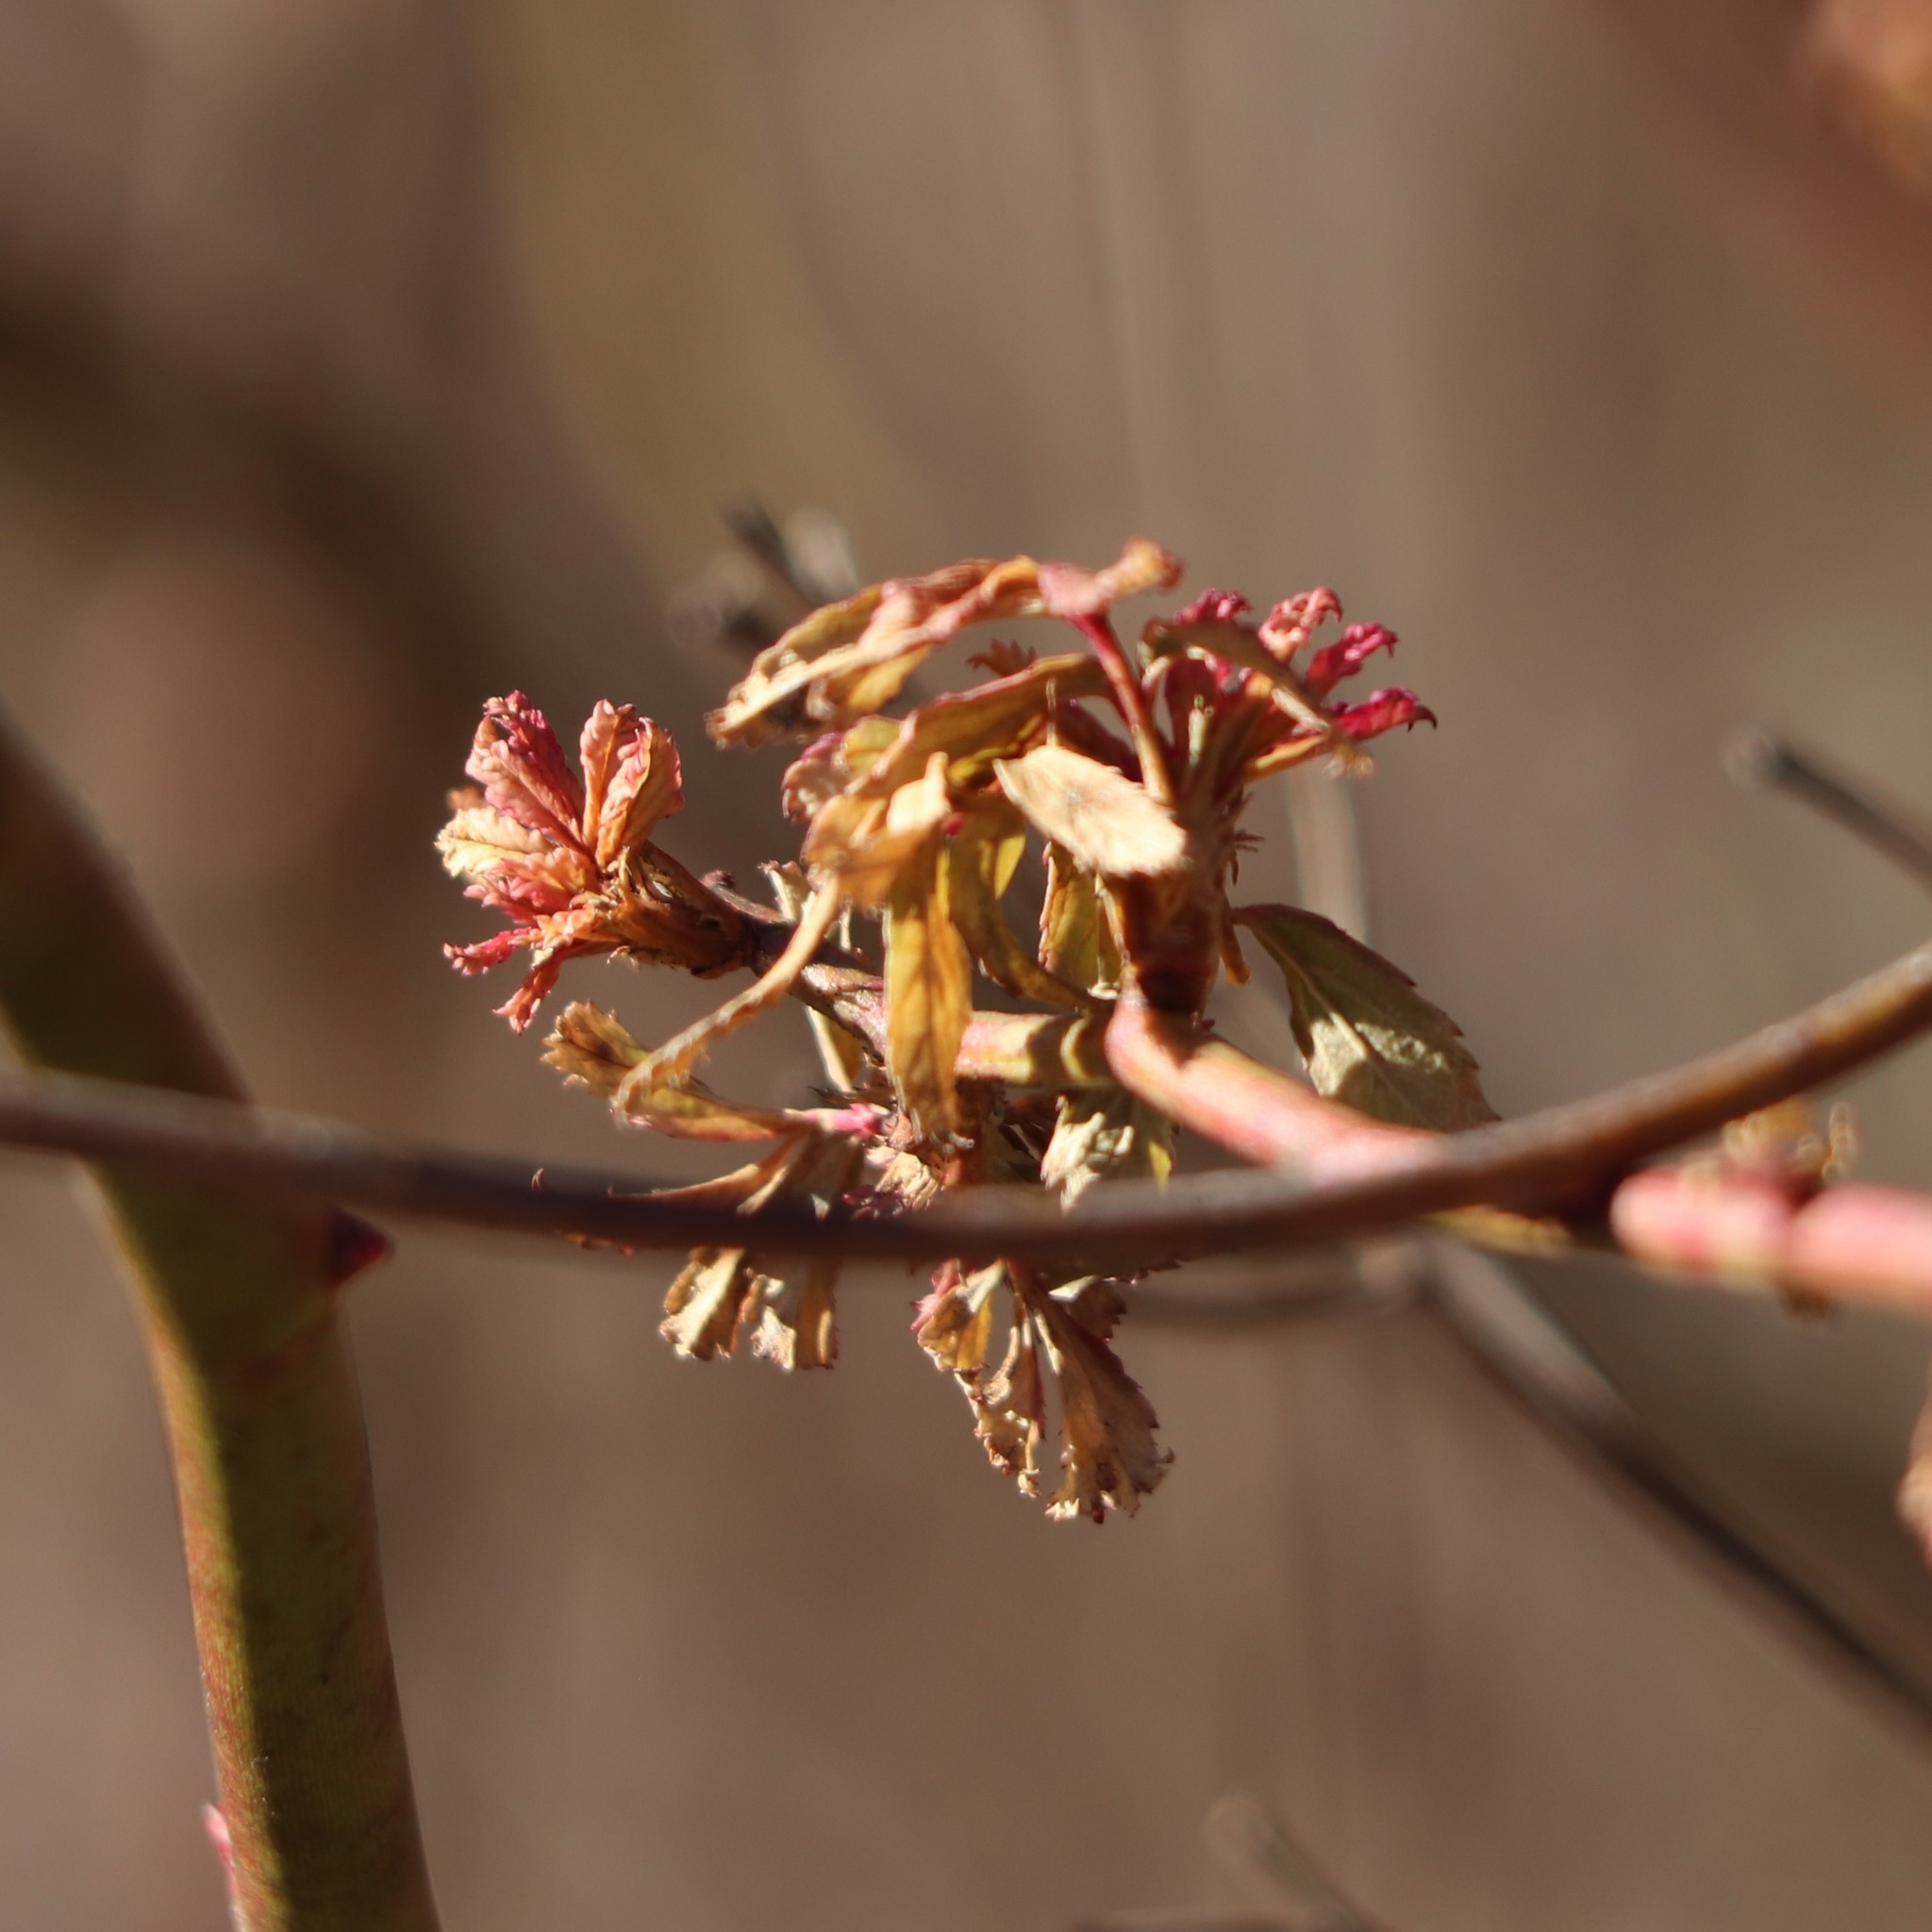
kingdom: Plantae
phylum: Tracheophyta
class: Magnoliopsida
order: Rosales
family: Rosaceae
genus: Rosa
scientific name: Rosa multiflora
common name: Multiflora rose
